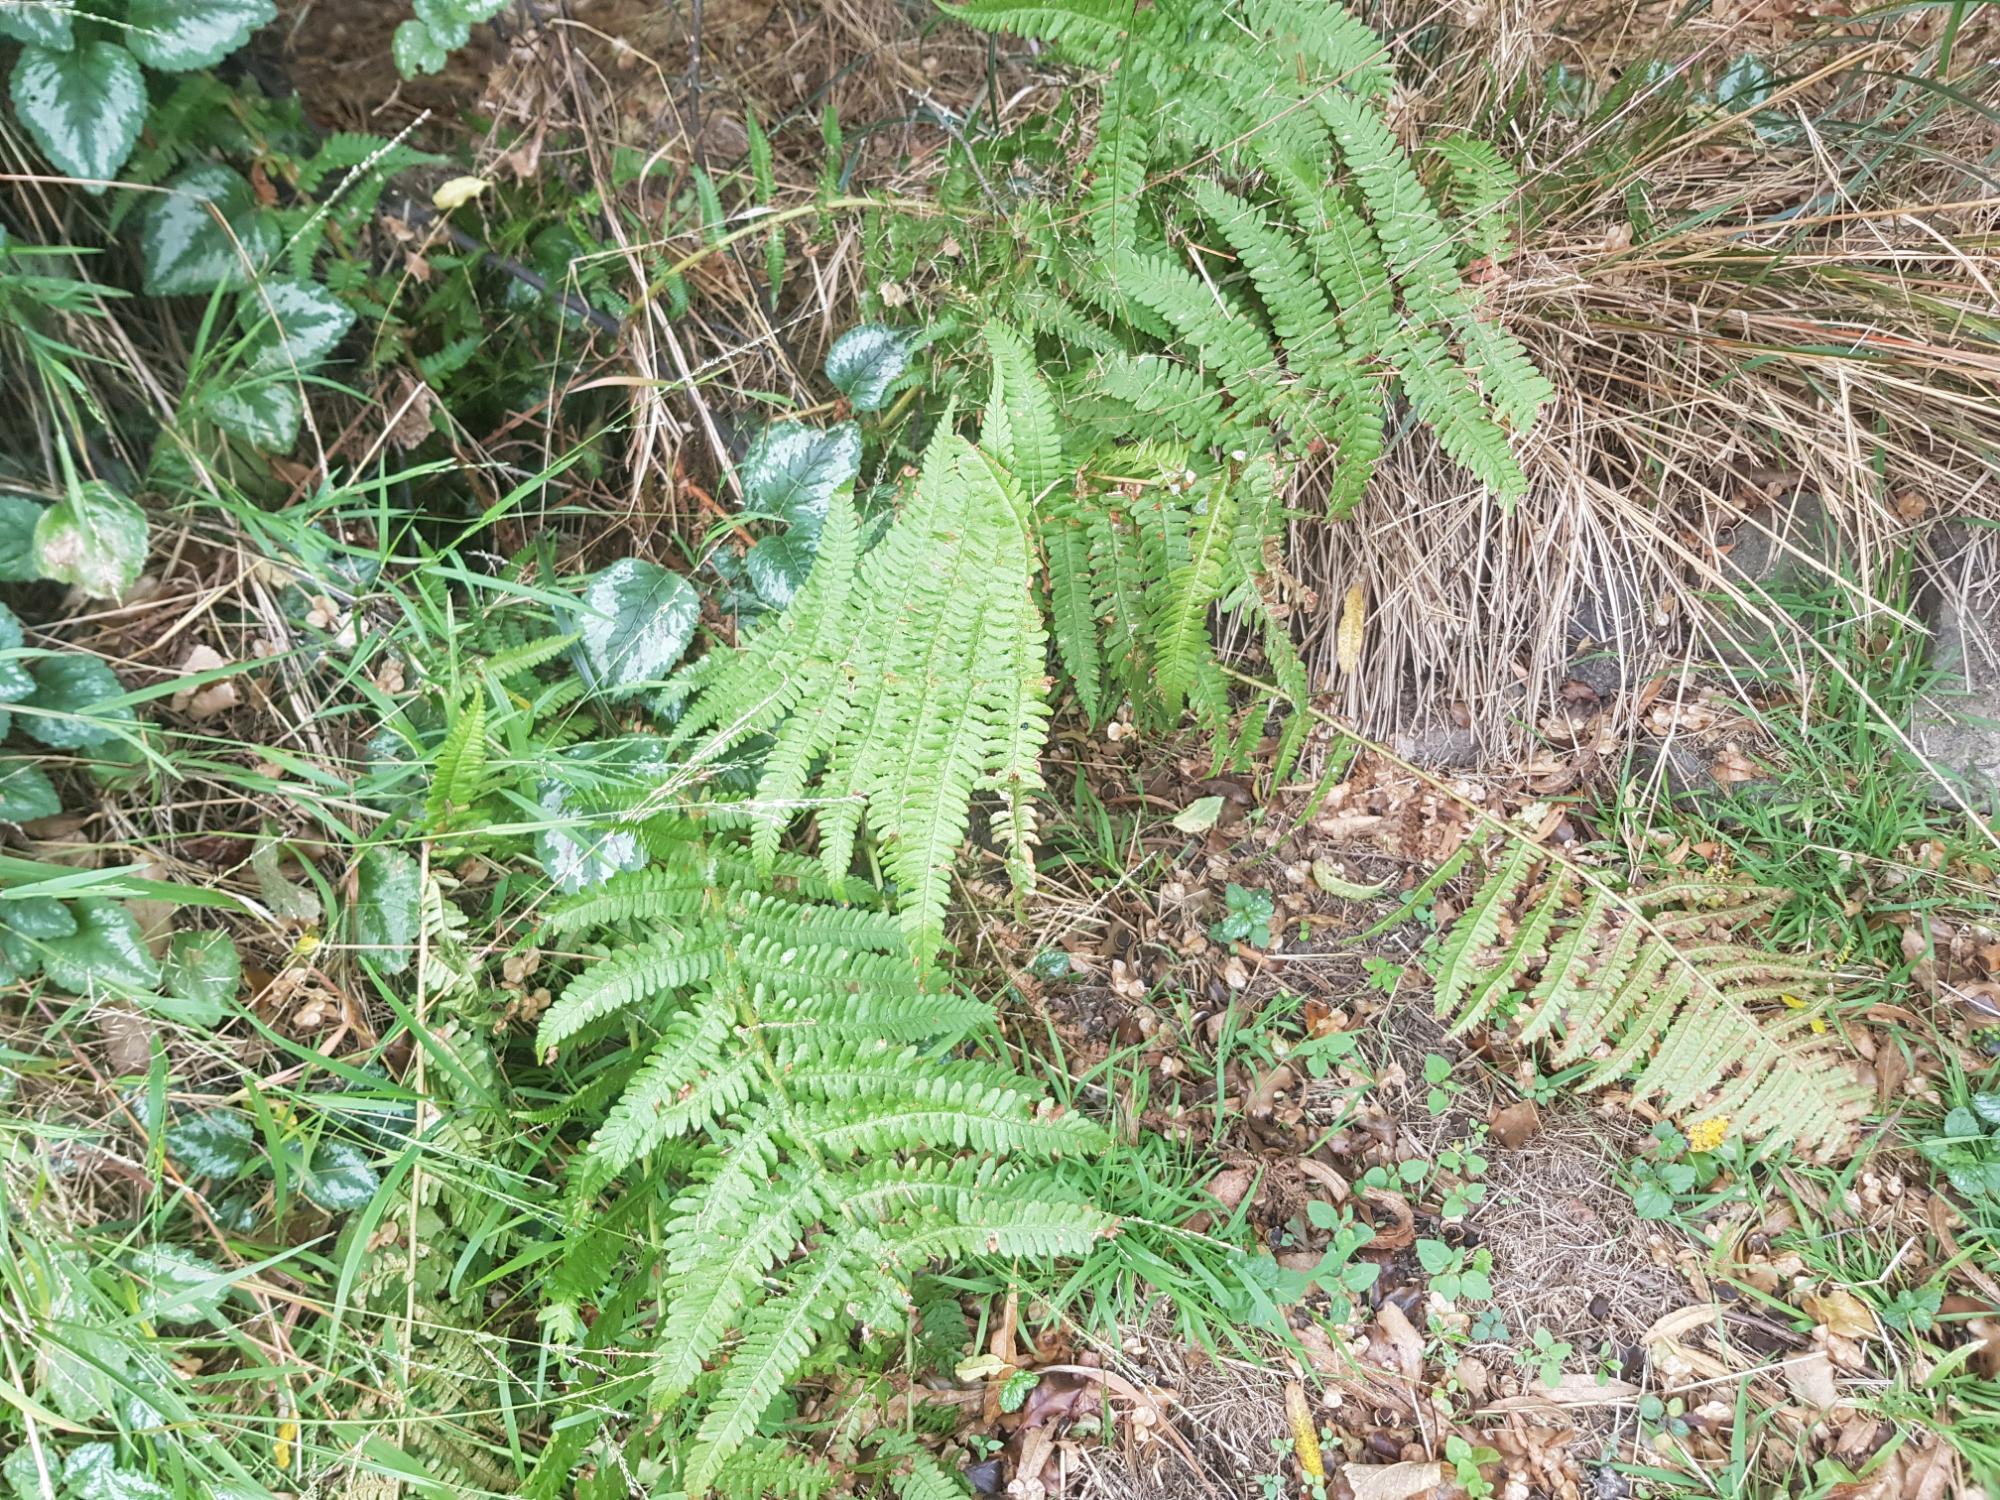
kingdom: Plantae
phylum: Tracheophyta
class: Polypodiopsida
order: Polypodiales
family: Dryopteridaceae
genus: Dryopteris
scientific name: Dryopteris filix-mas
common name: Male fern
